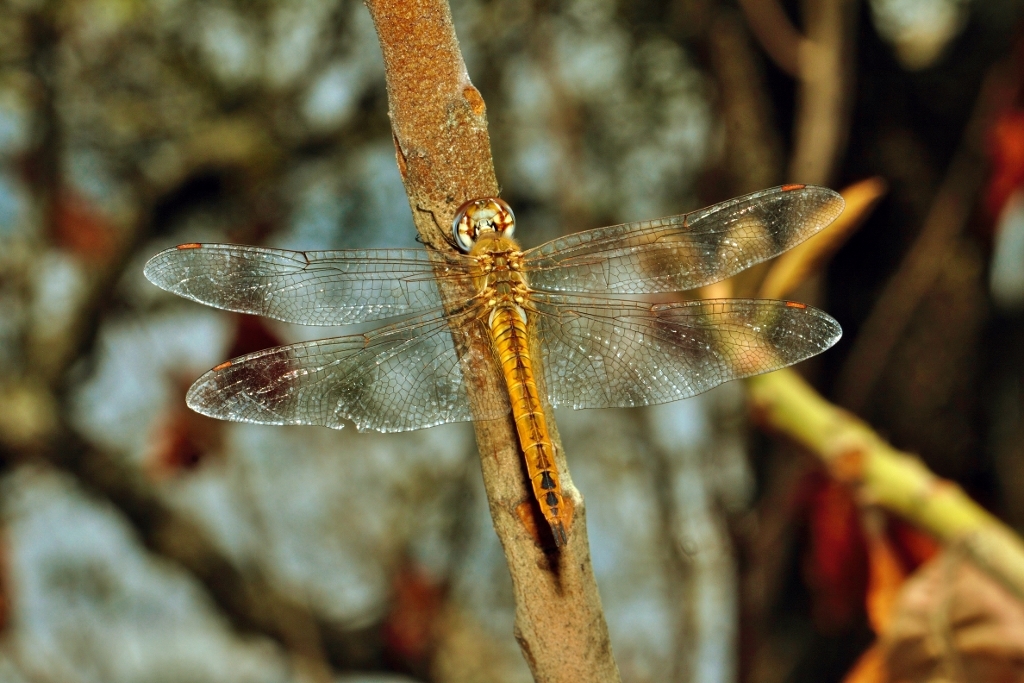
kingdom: Animalia
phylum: Arthropoda
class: Insecta
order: Odonata
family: Libellulidae
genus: Pantala
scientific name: Pantala flavescens
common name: Wandering glider
